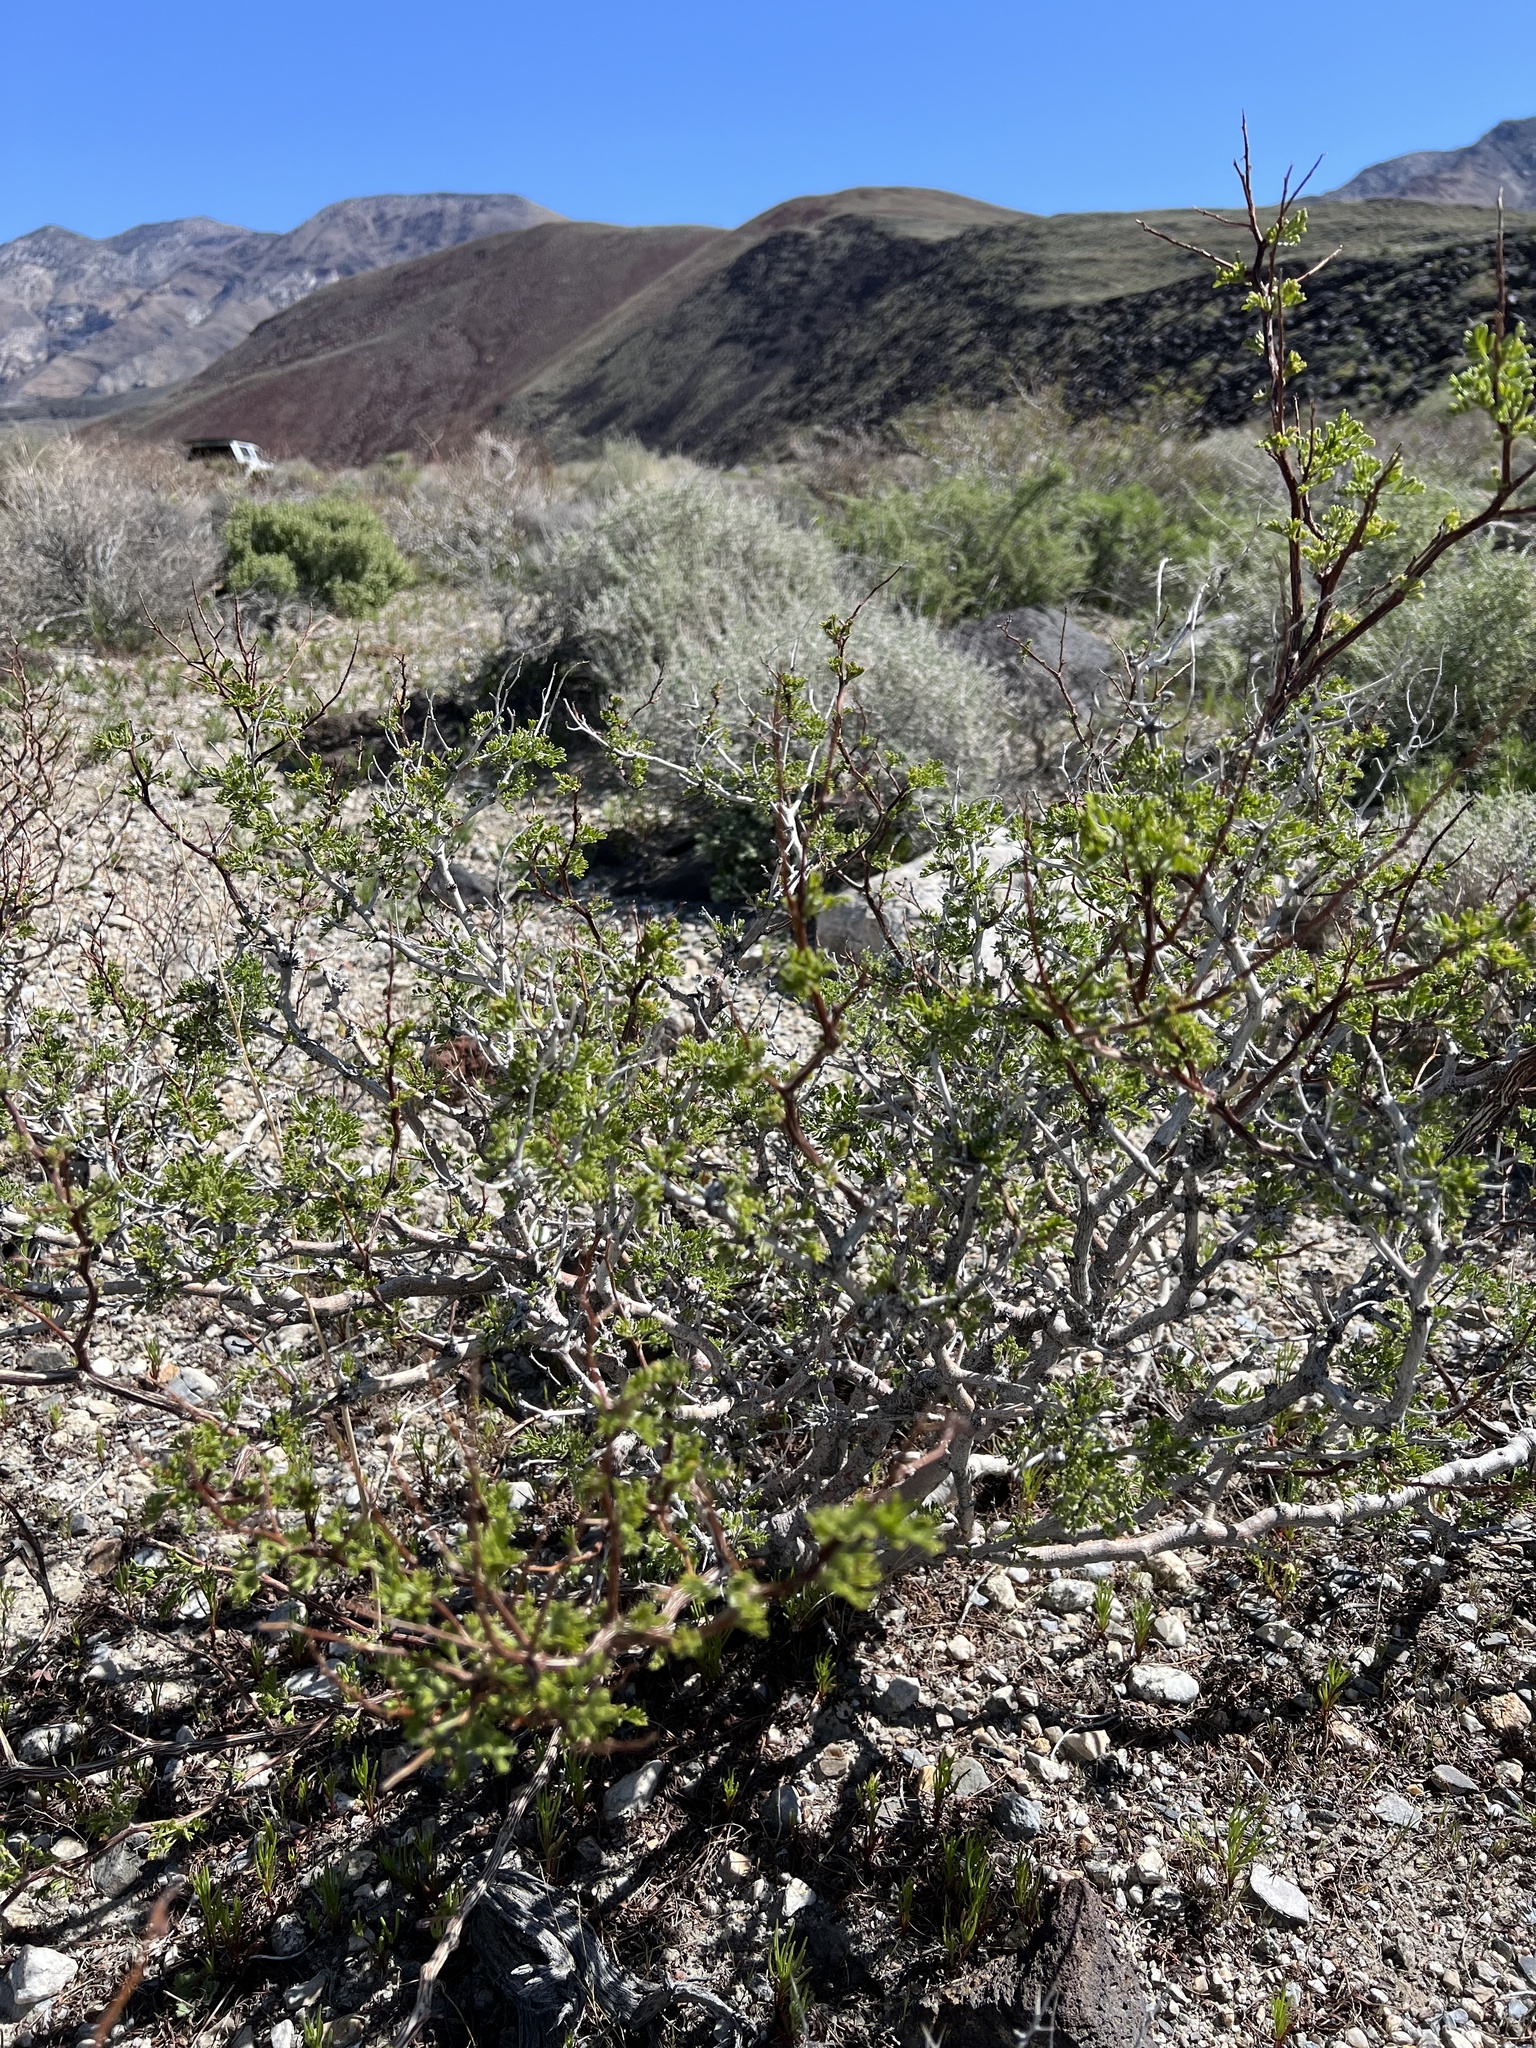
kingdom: Plantae
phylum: Tracheophyta
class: Magnoliopsida
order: Fabales
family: Fabaceae
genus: Psorothamnus
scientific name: Psorothamnus arborescens
